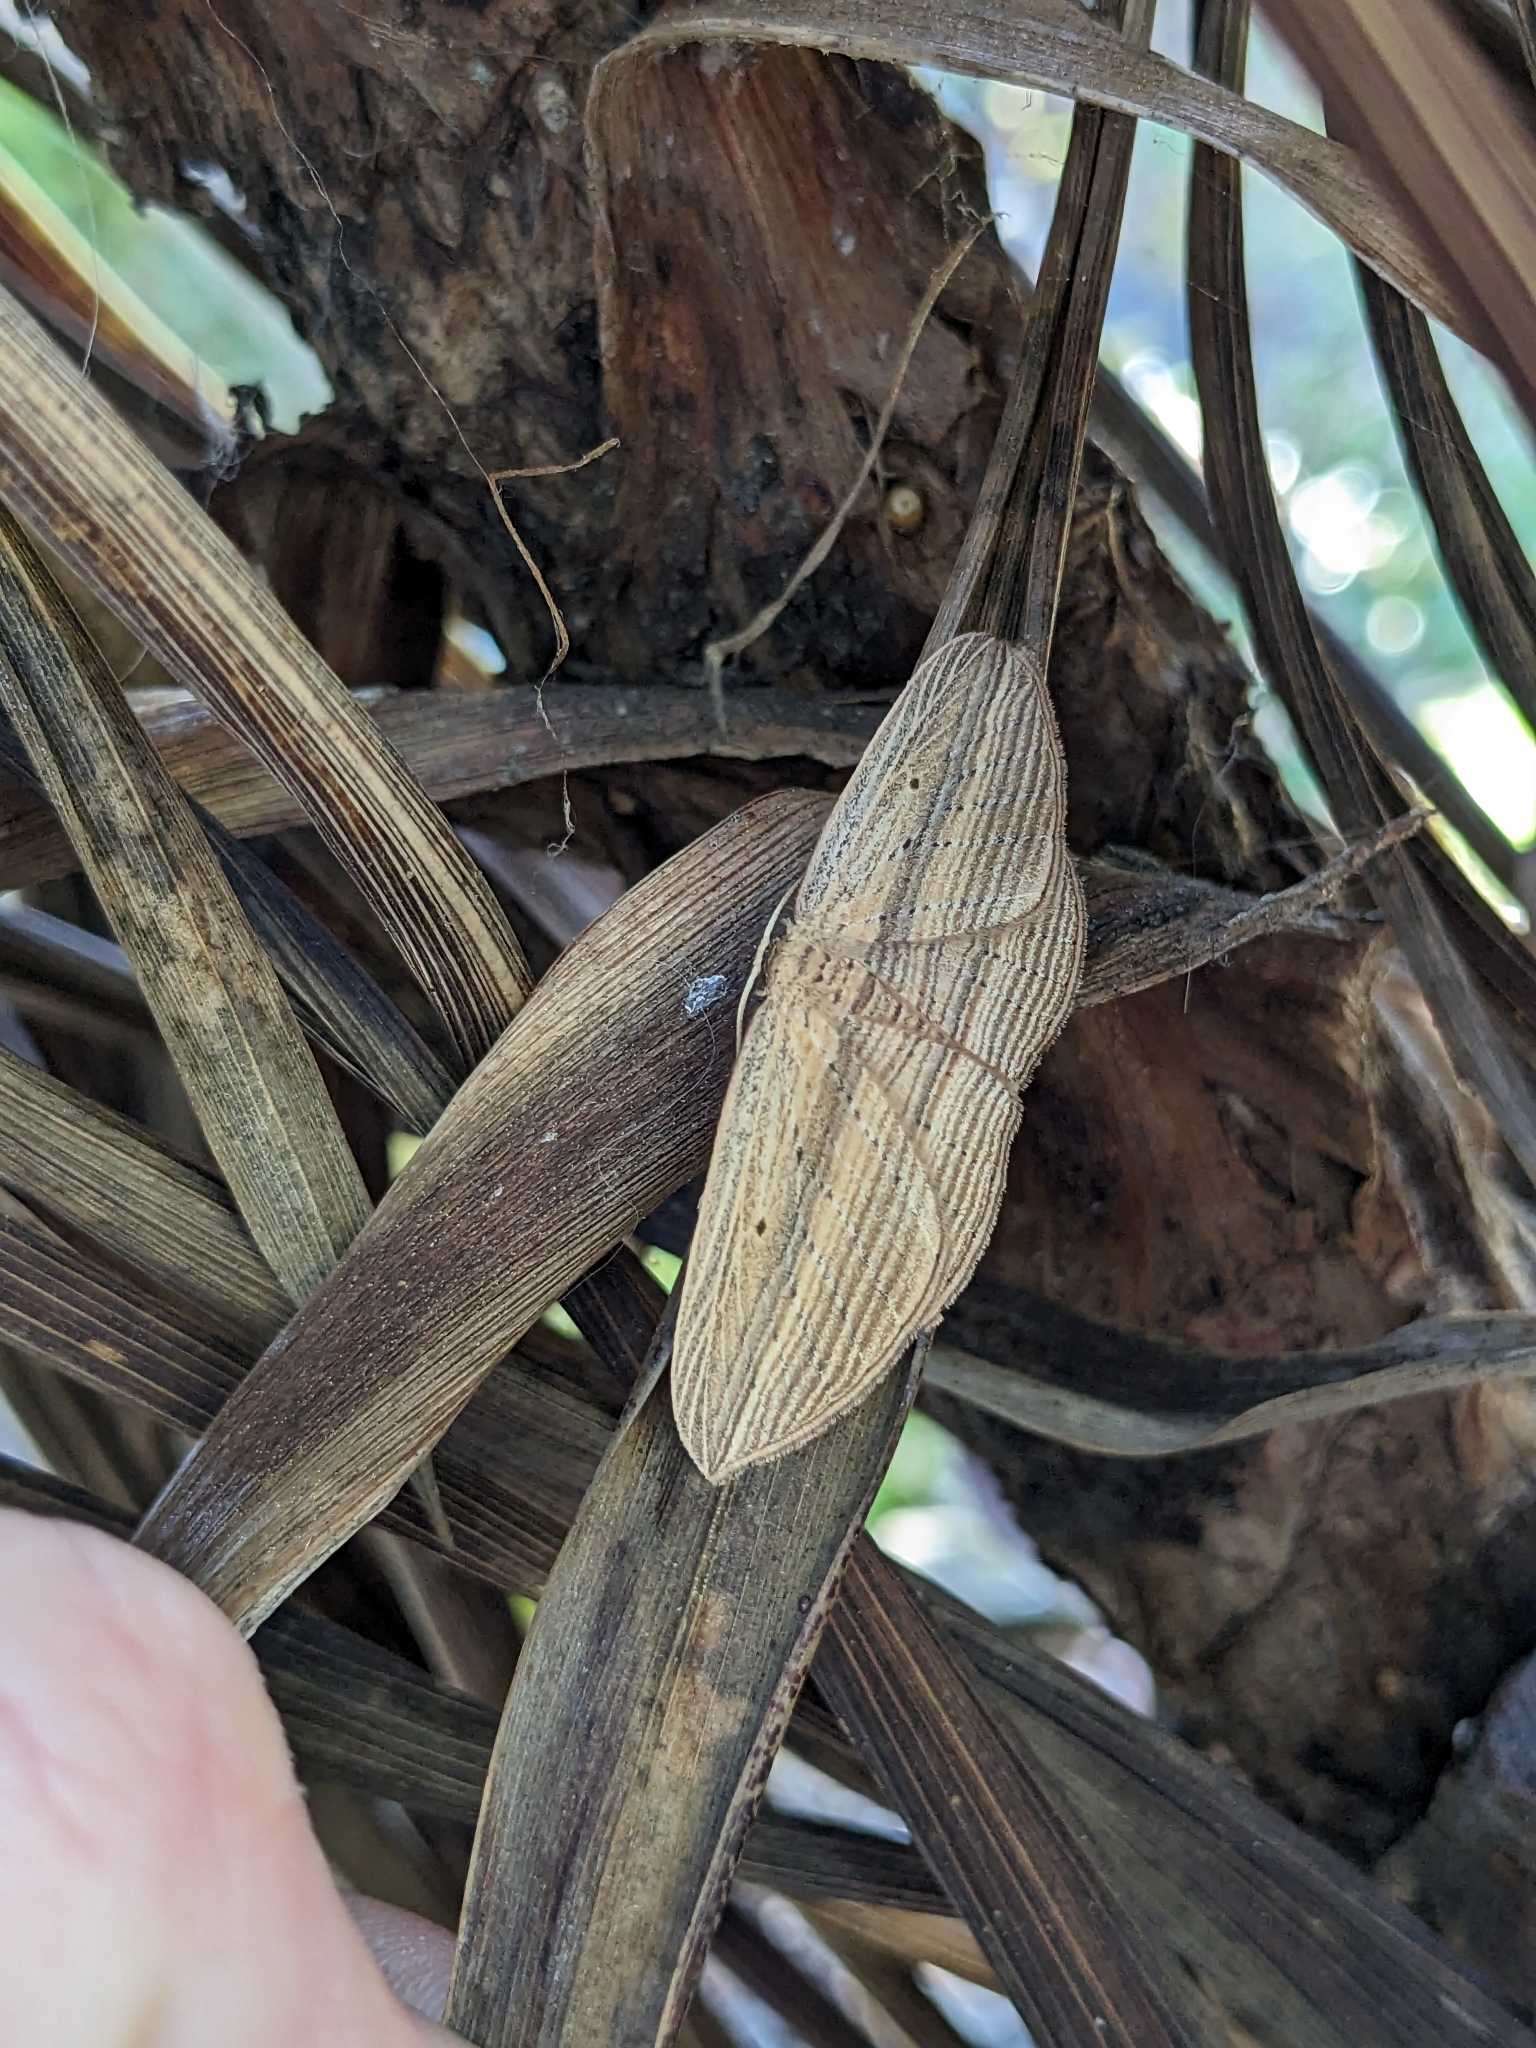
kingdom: Animalia
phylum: Arthropoda
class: Insecta
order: Lepidoptera
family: Geometridae
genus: Epiphryne
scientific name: Epiphryne verriculata
